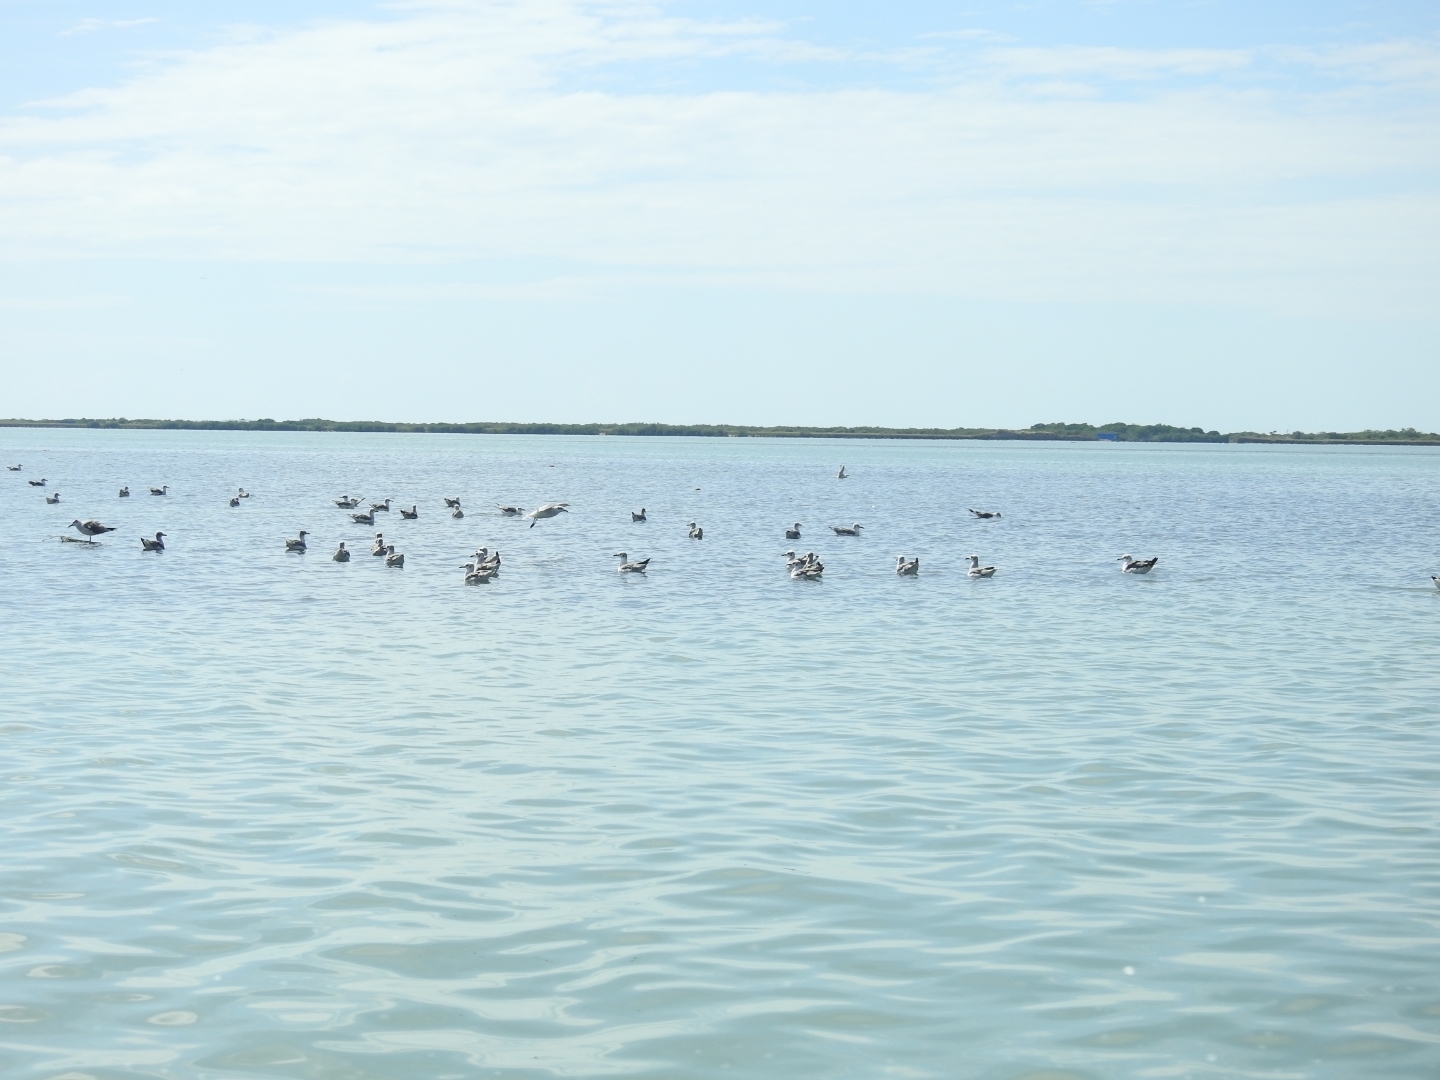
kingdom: Animalia
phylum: Chordata
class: Aves
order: Charadriiformes
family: Laridae
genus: Leucophaeus
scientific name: Leucophaeus atricilla
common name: Laughing gull
